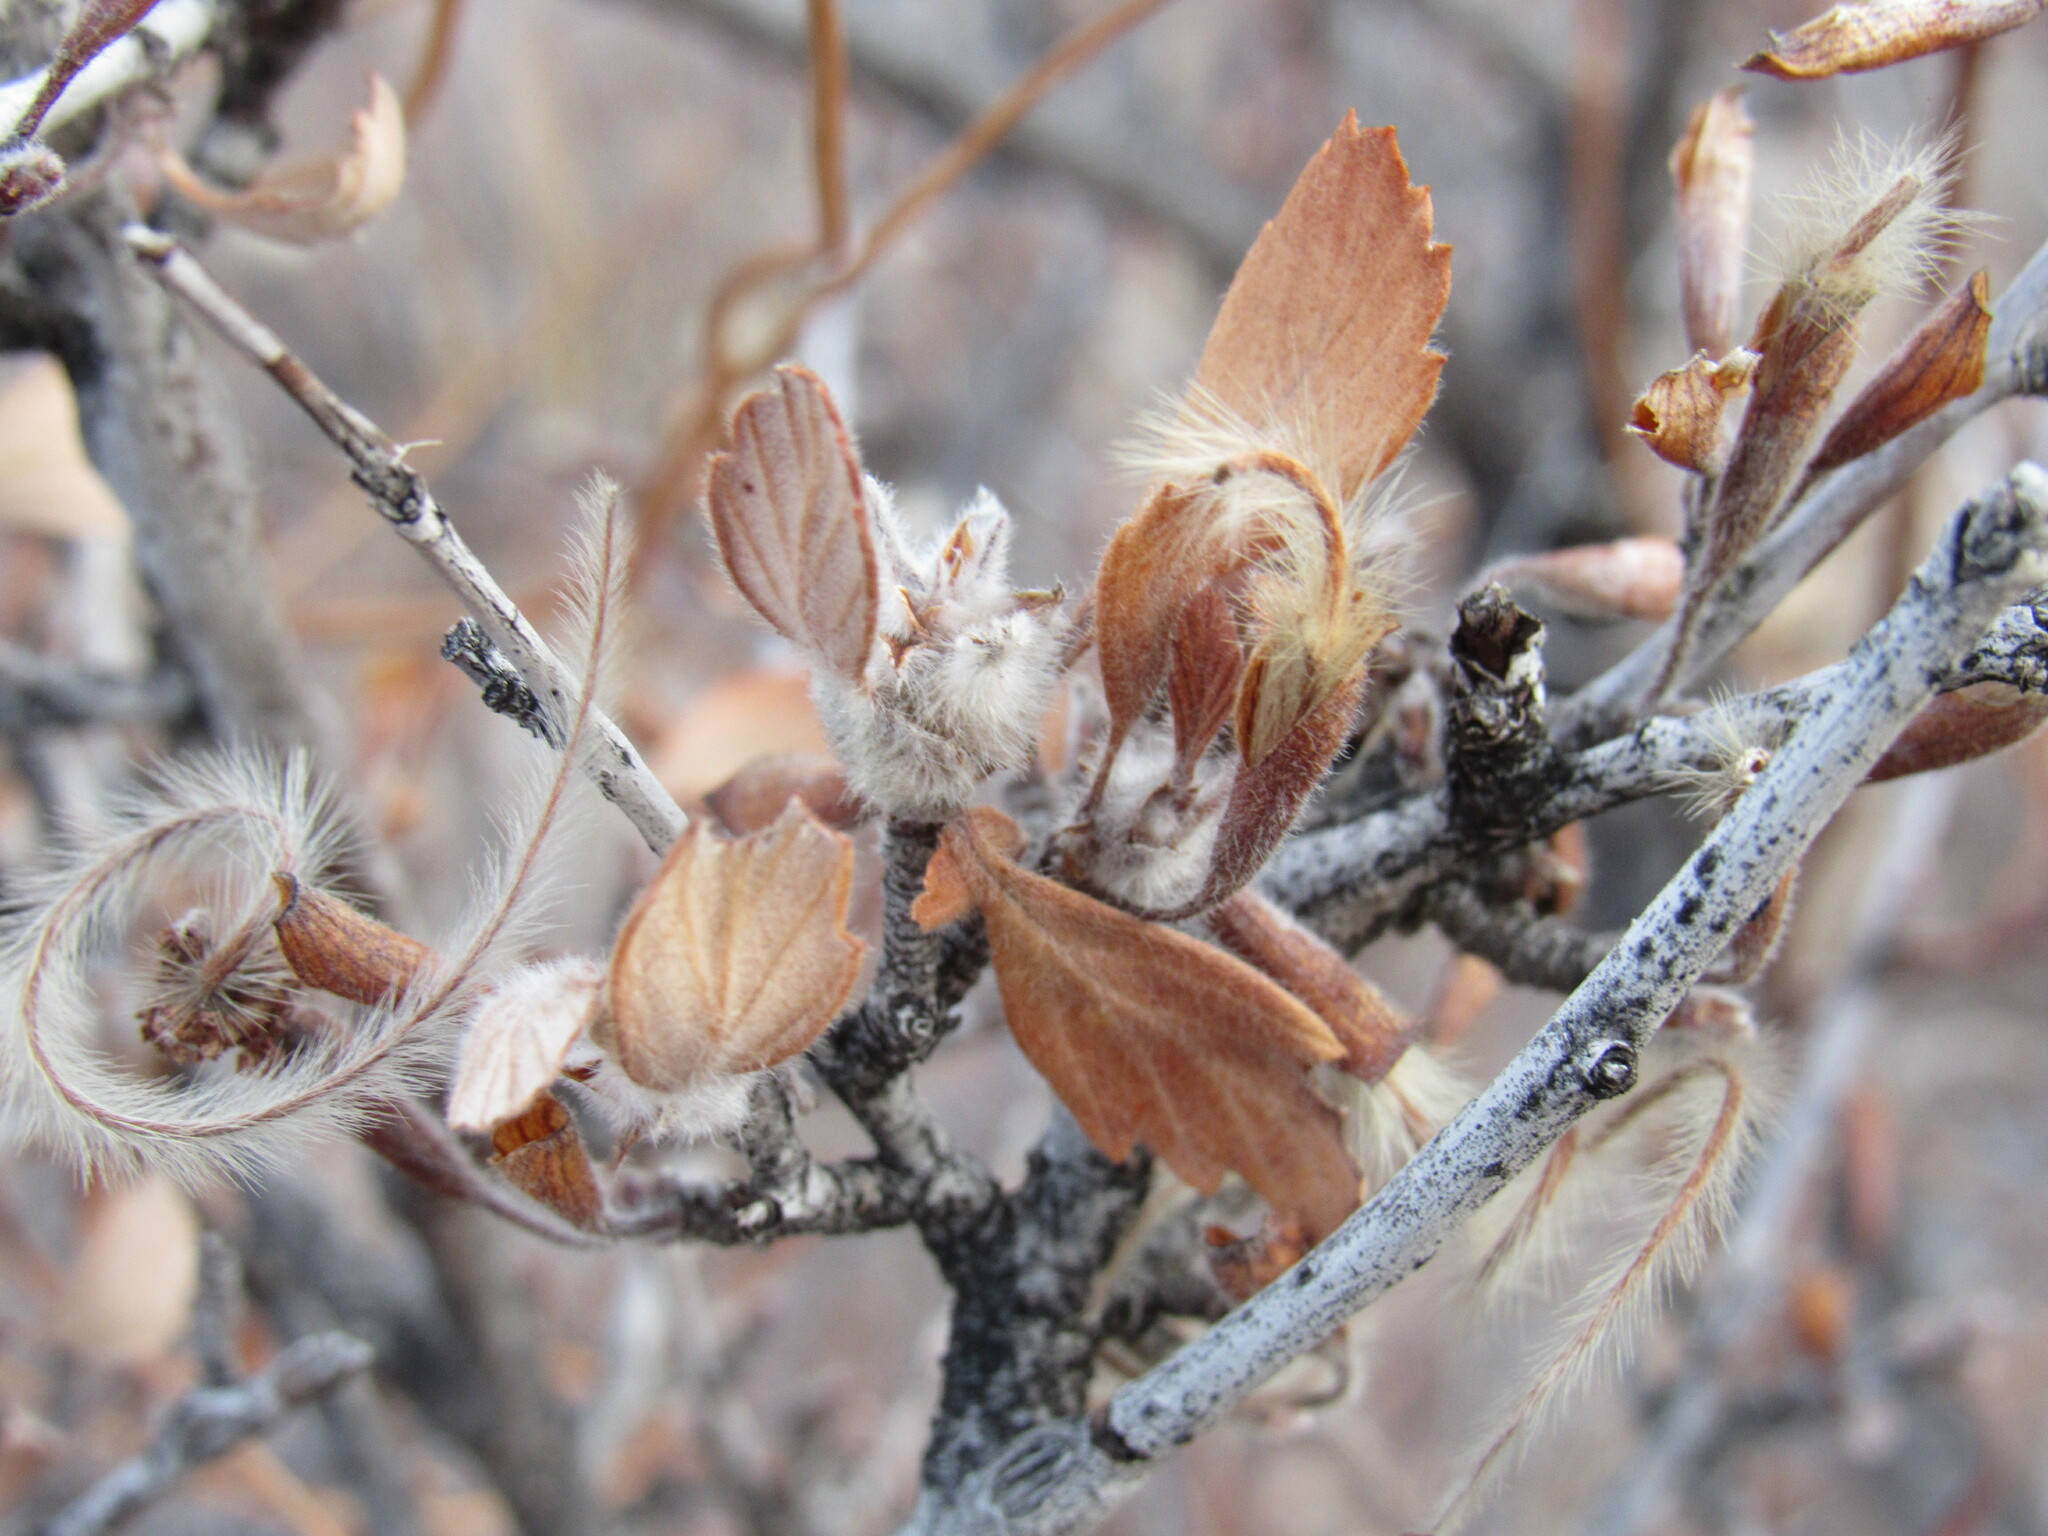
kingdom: Plantae
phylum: Tracheophyta
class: Magnoliopsida
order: Rosales
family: Rosaceae
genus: Cercocarpus
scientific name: Cercocarpus montanus
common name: Alder-leaf cercocarpus
